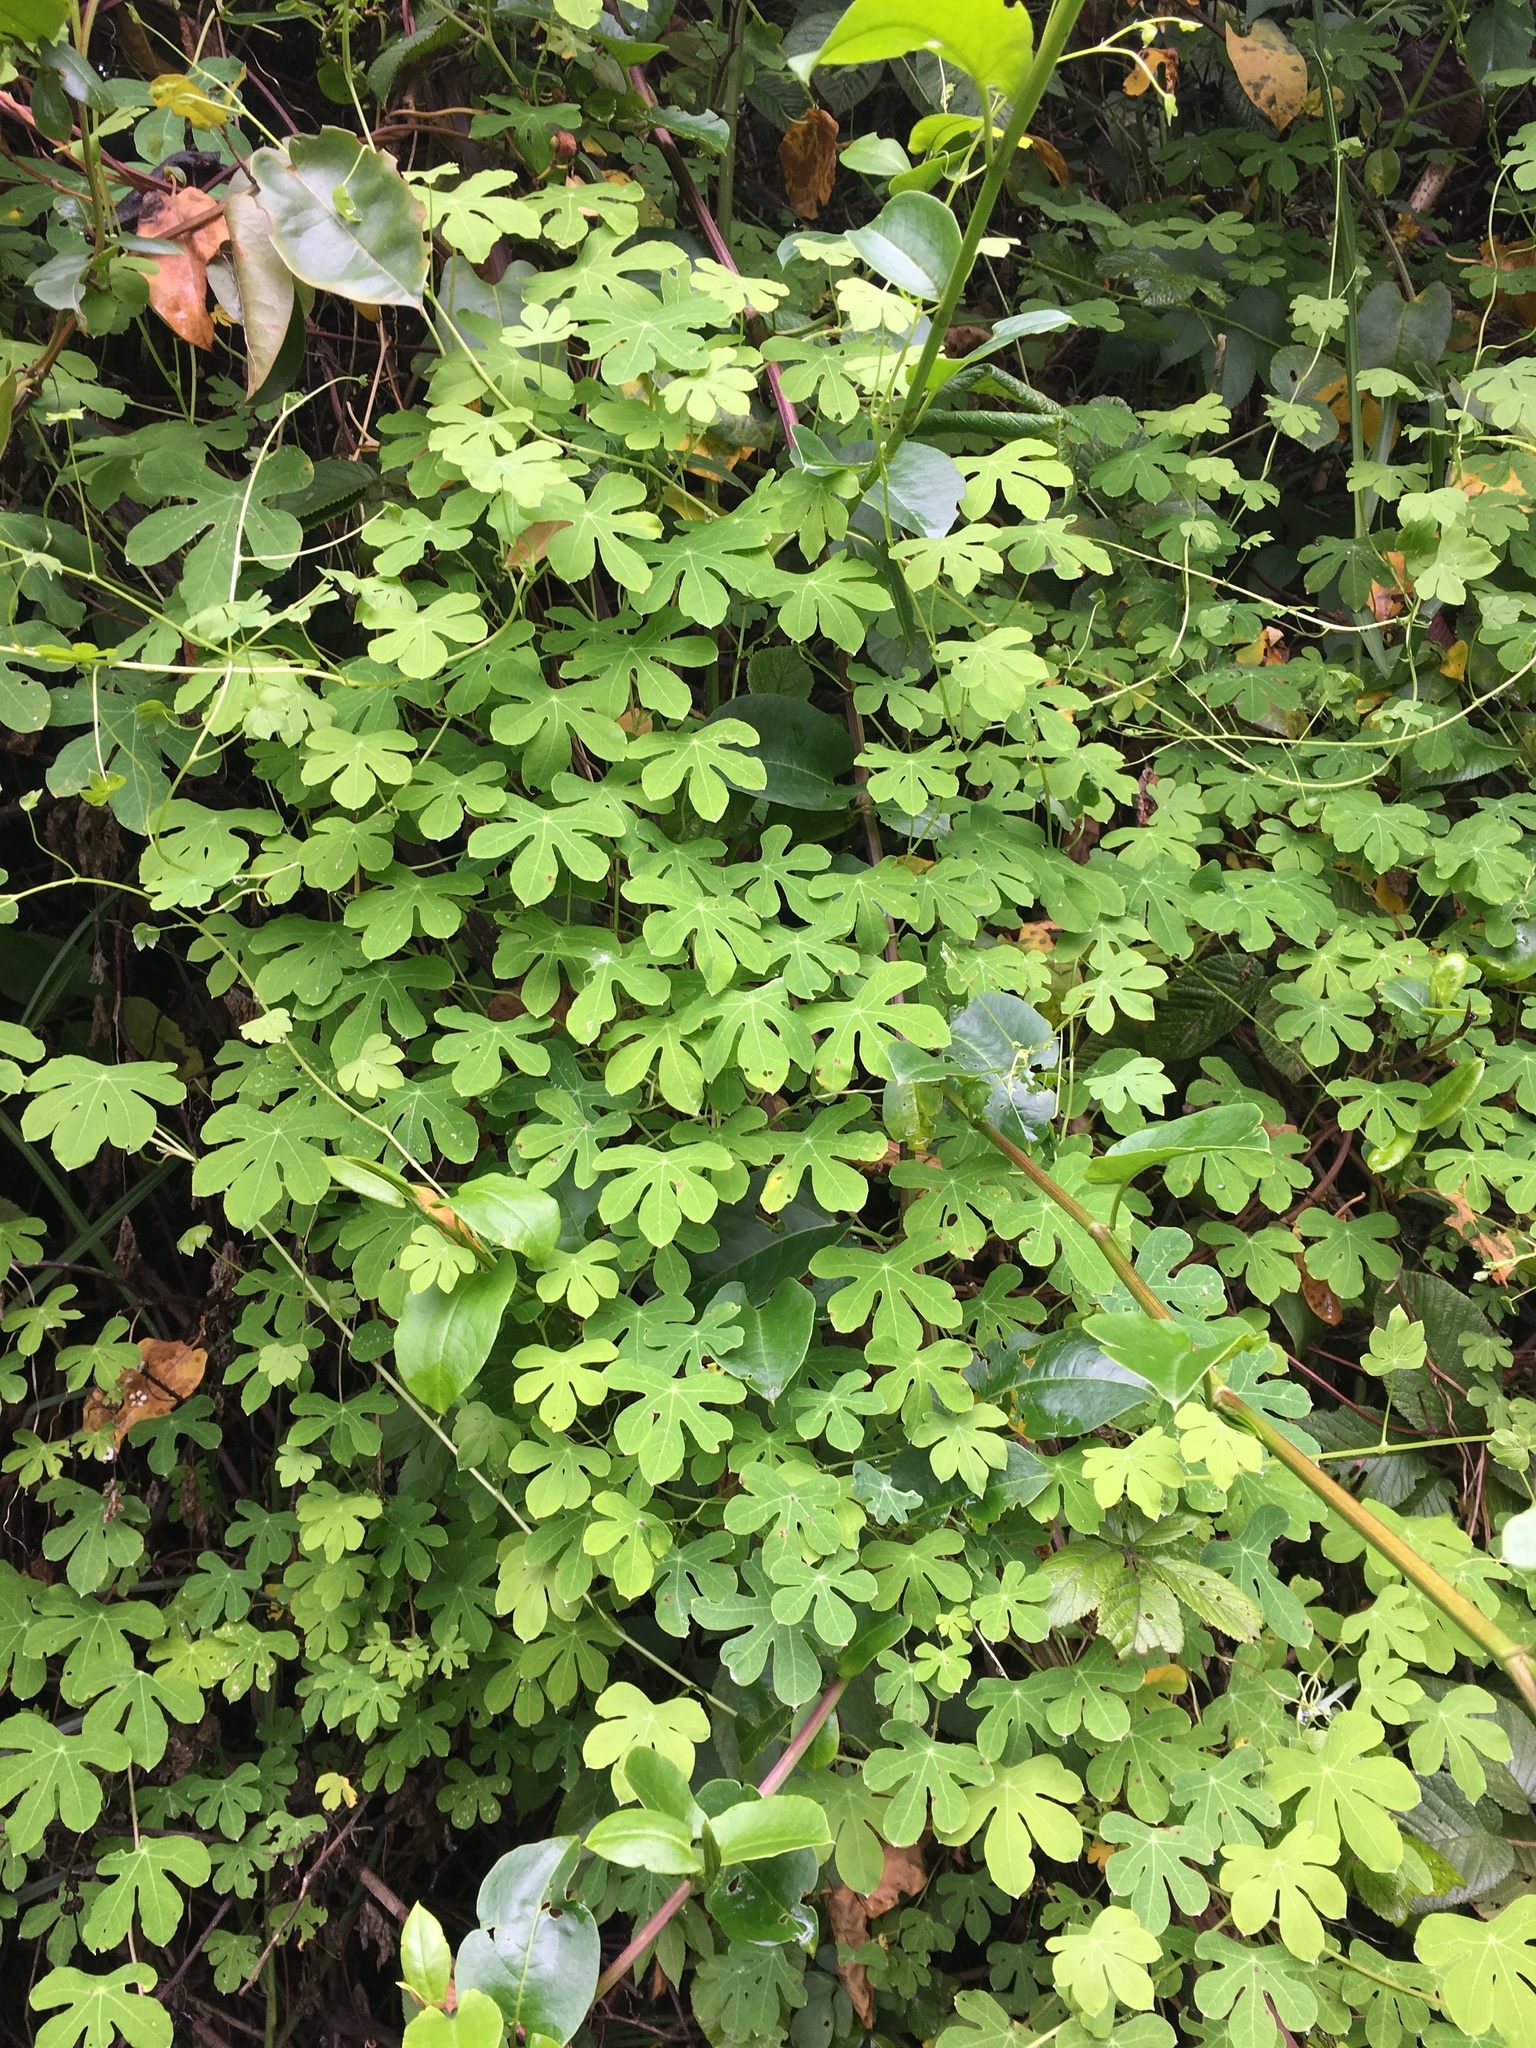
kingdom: Plantae
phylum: Tracheophyta
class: Magnoliopsida
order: Brassicales
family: Tropaeolaceae
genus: Tropaeolum
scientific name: Tropaeolum smithii
